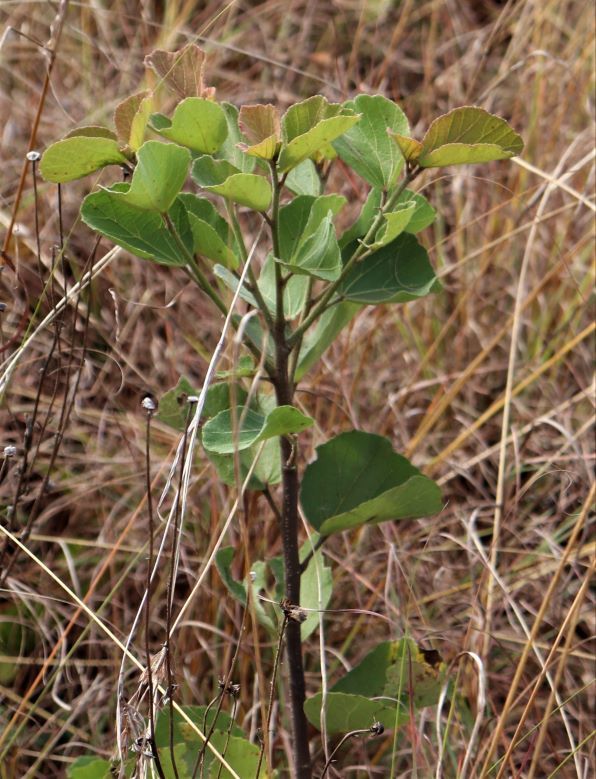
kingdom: Plantae
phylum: Tracheophyta
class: Magnoliopsida
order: Malvales
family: Malvaceae
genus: Dombeya
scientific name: Dombeya rotundifolia
